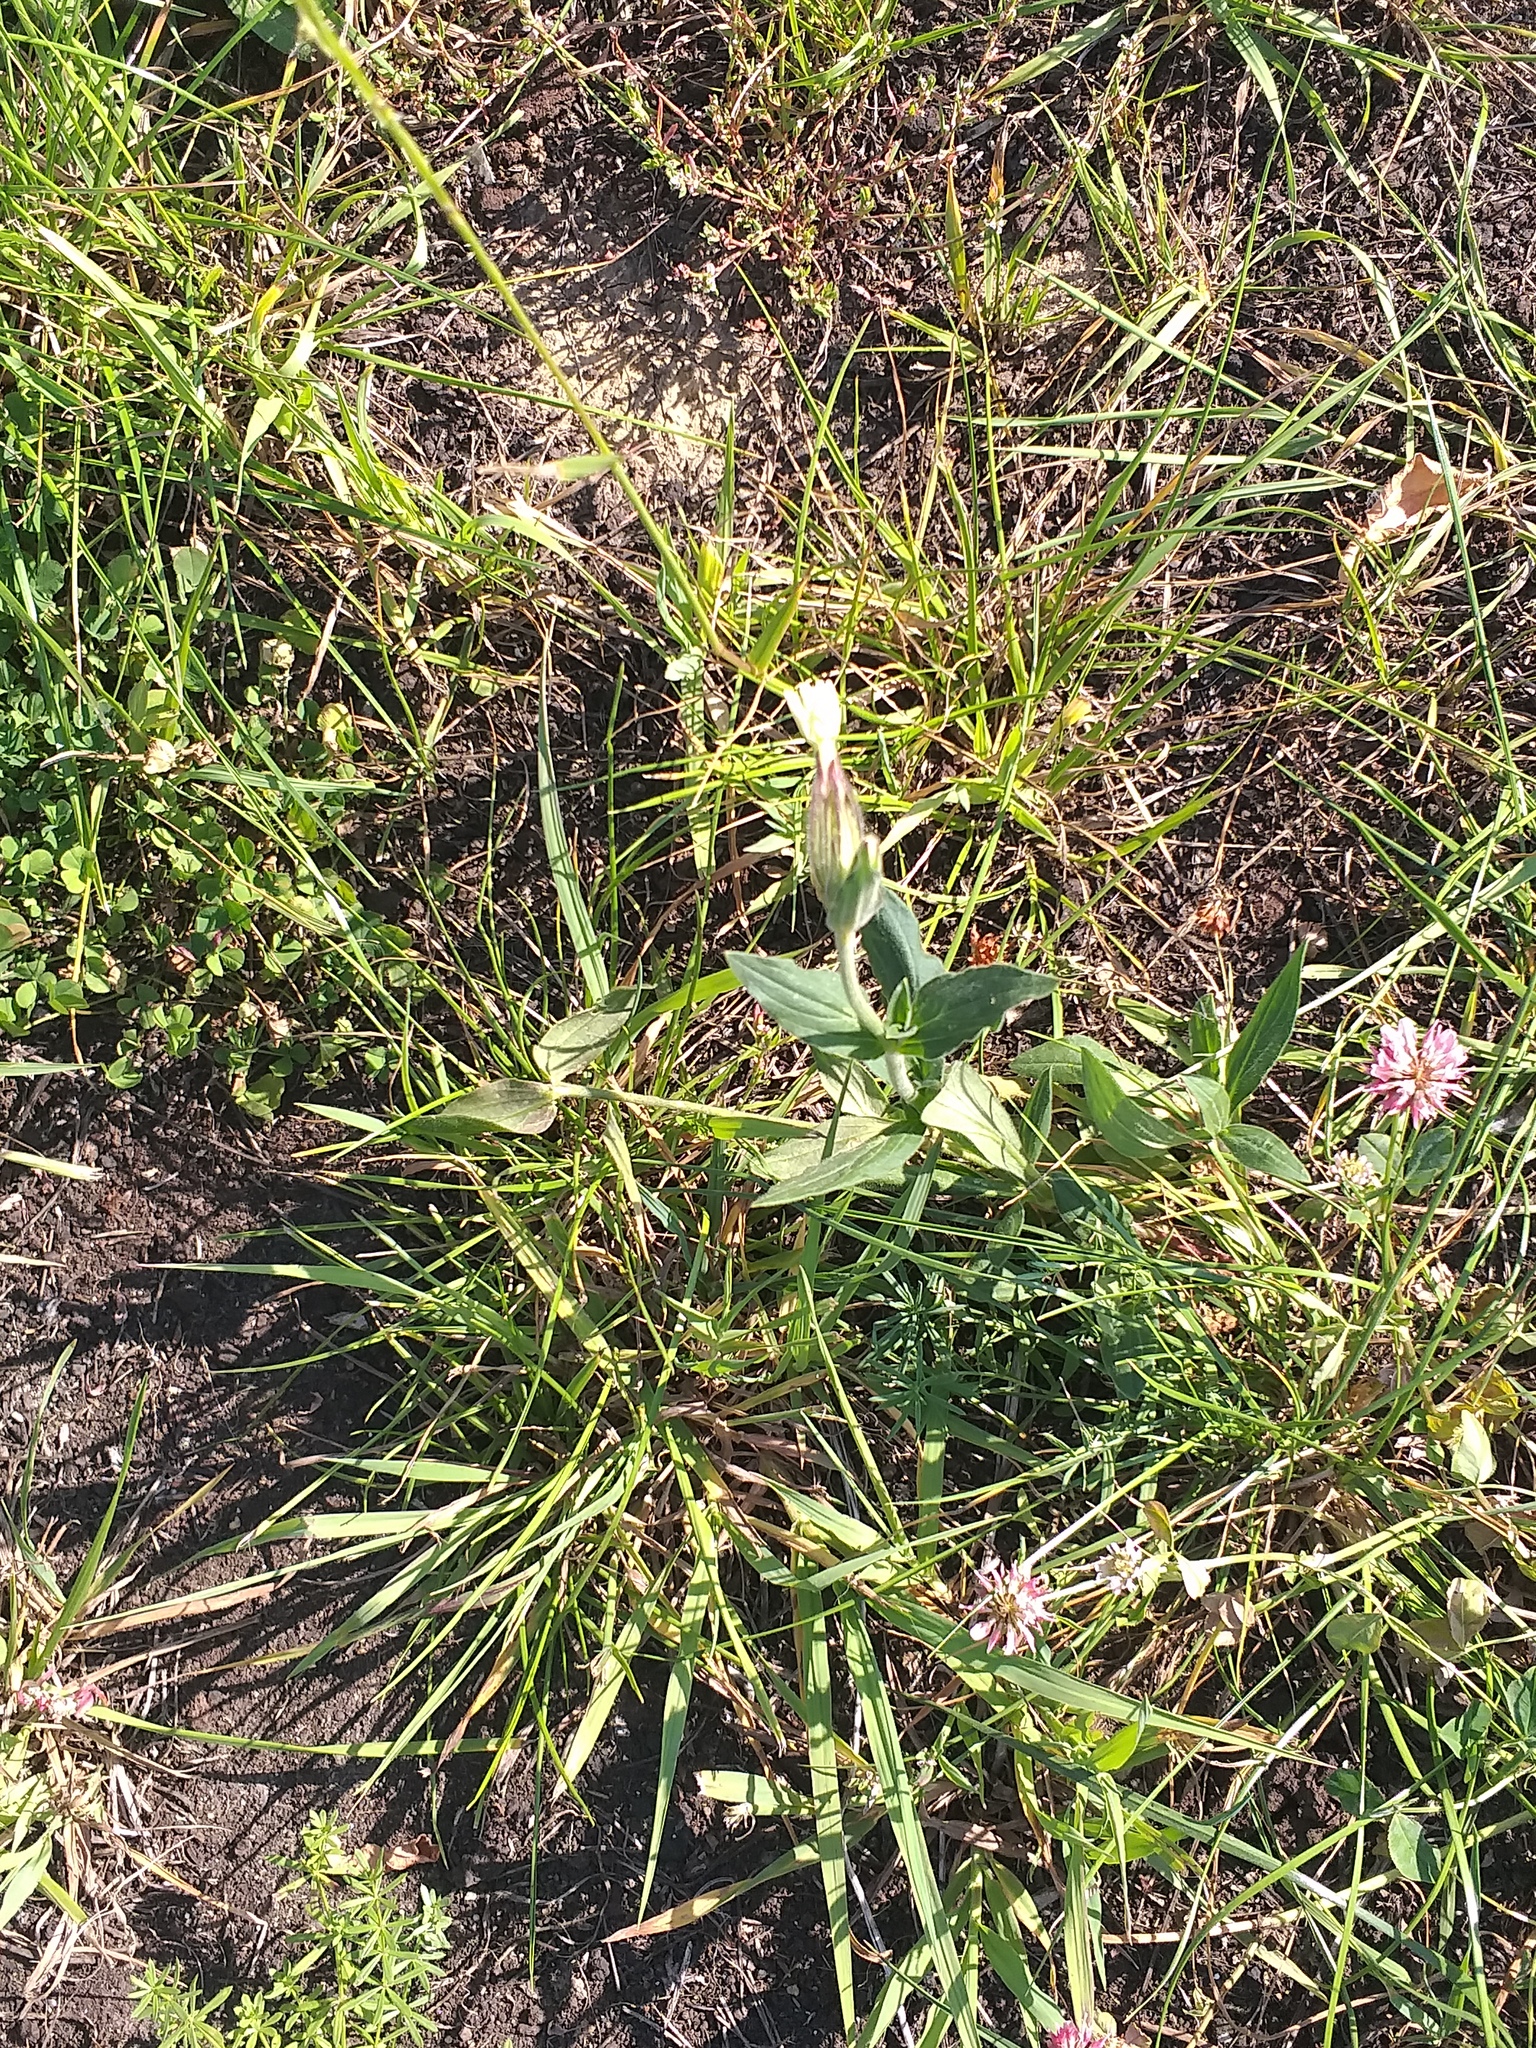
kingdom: Plantae
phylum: Tracheophyta
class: Magnoliopsida
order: Caryophyllales
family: Caryophyllaceae
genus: Silene
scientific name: Silene latifolia
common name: White campion
